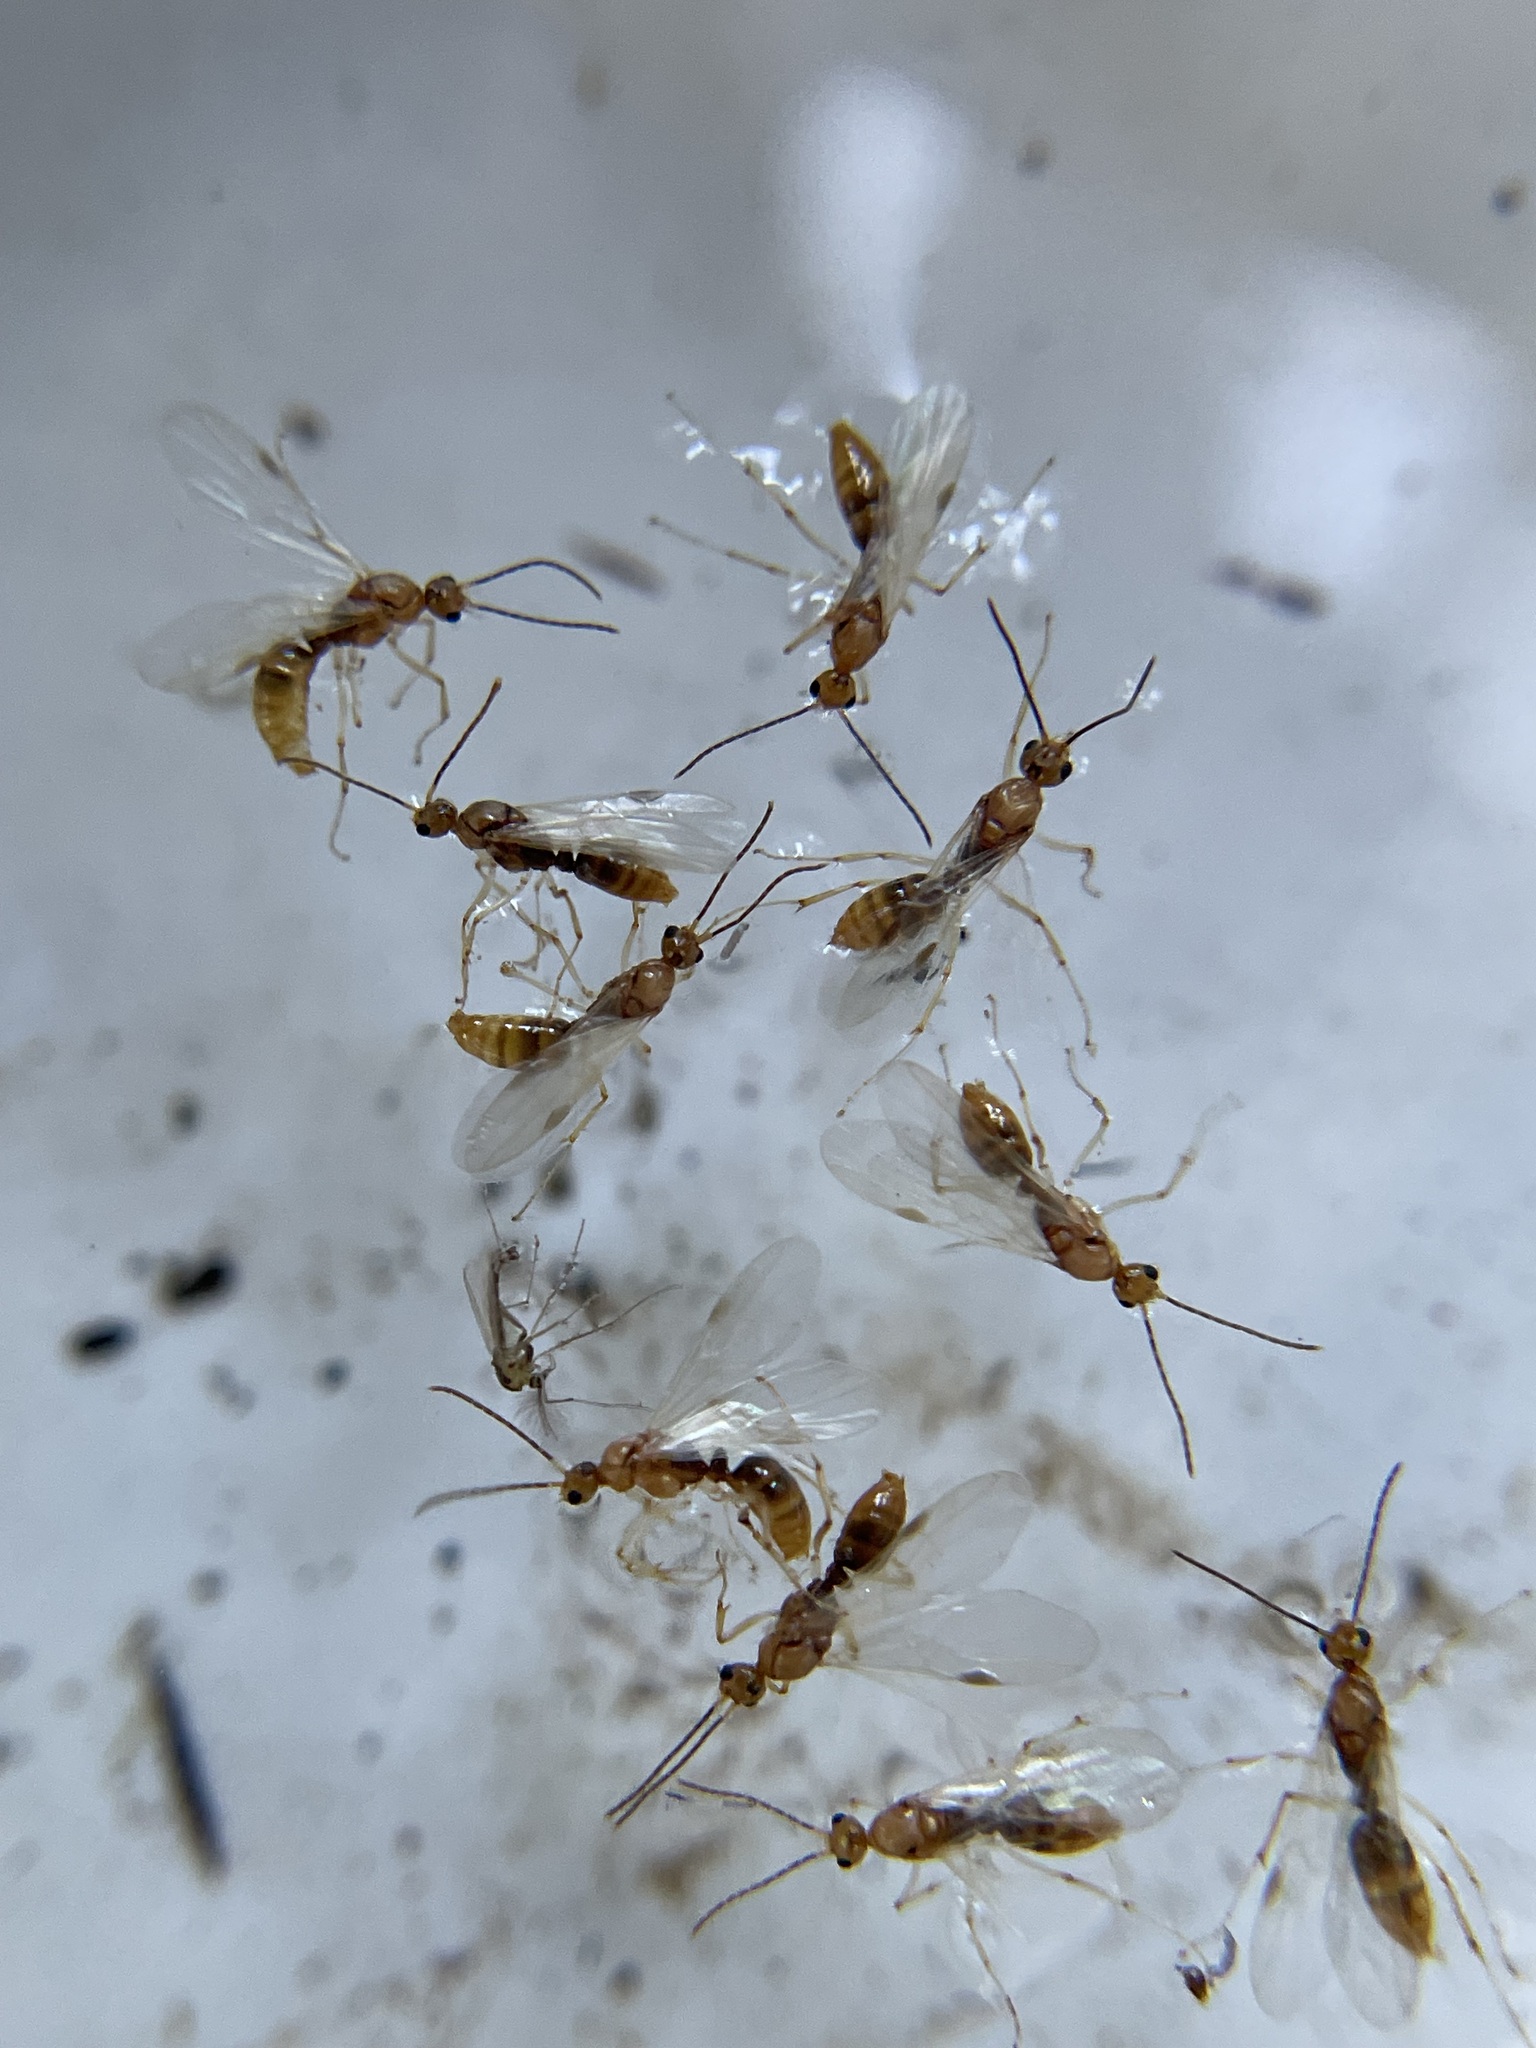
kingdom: Animalia
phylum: Arthropoda
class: Insecta
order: Hymenoptera
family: Formicidae
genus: Pachycondyla
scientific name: Pachycondyla chinensis
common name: Asian needle ant
